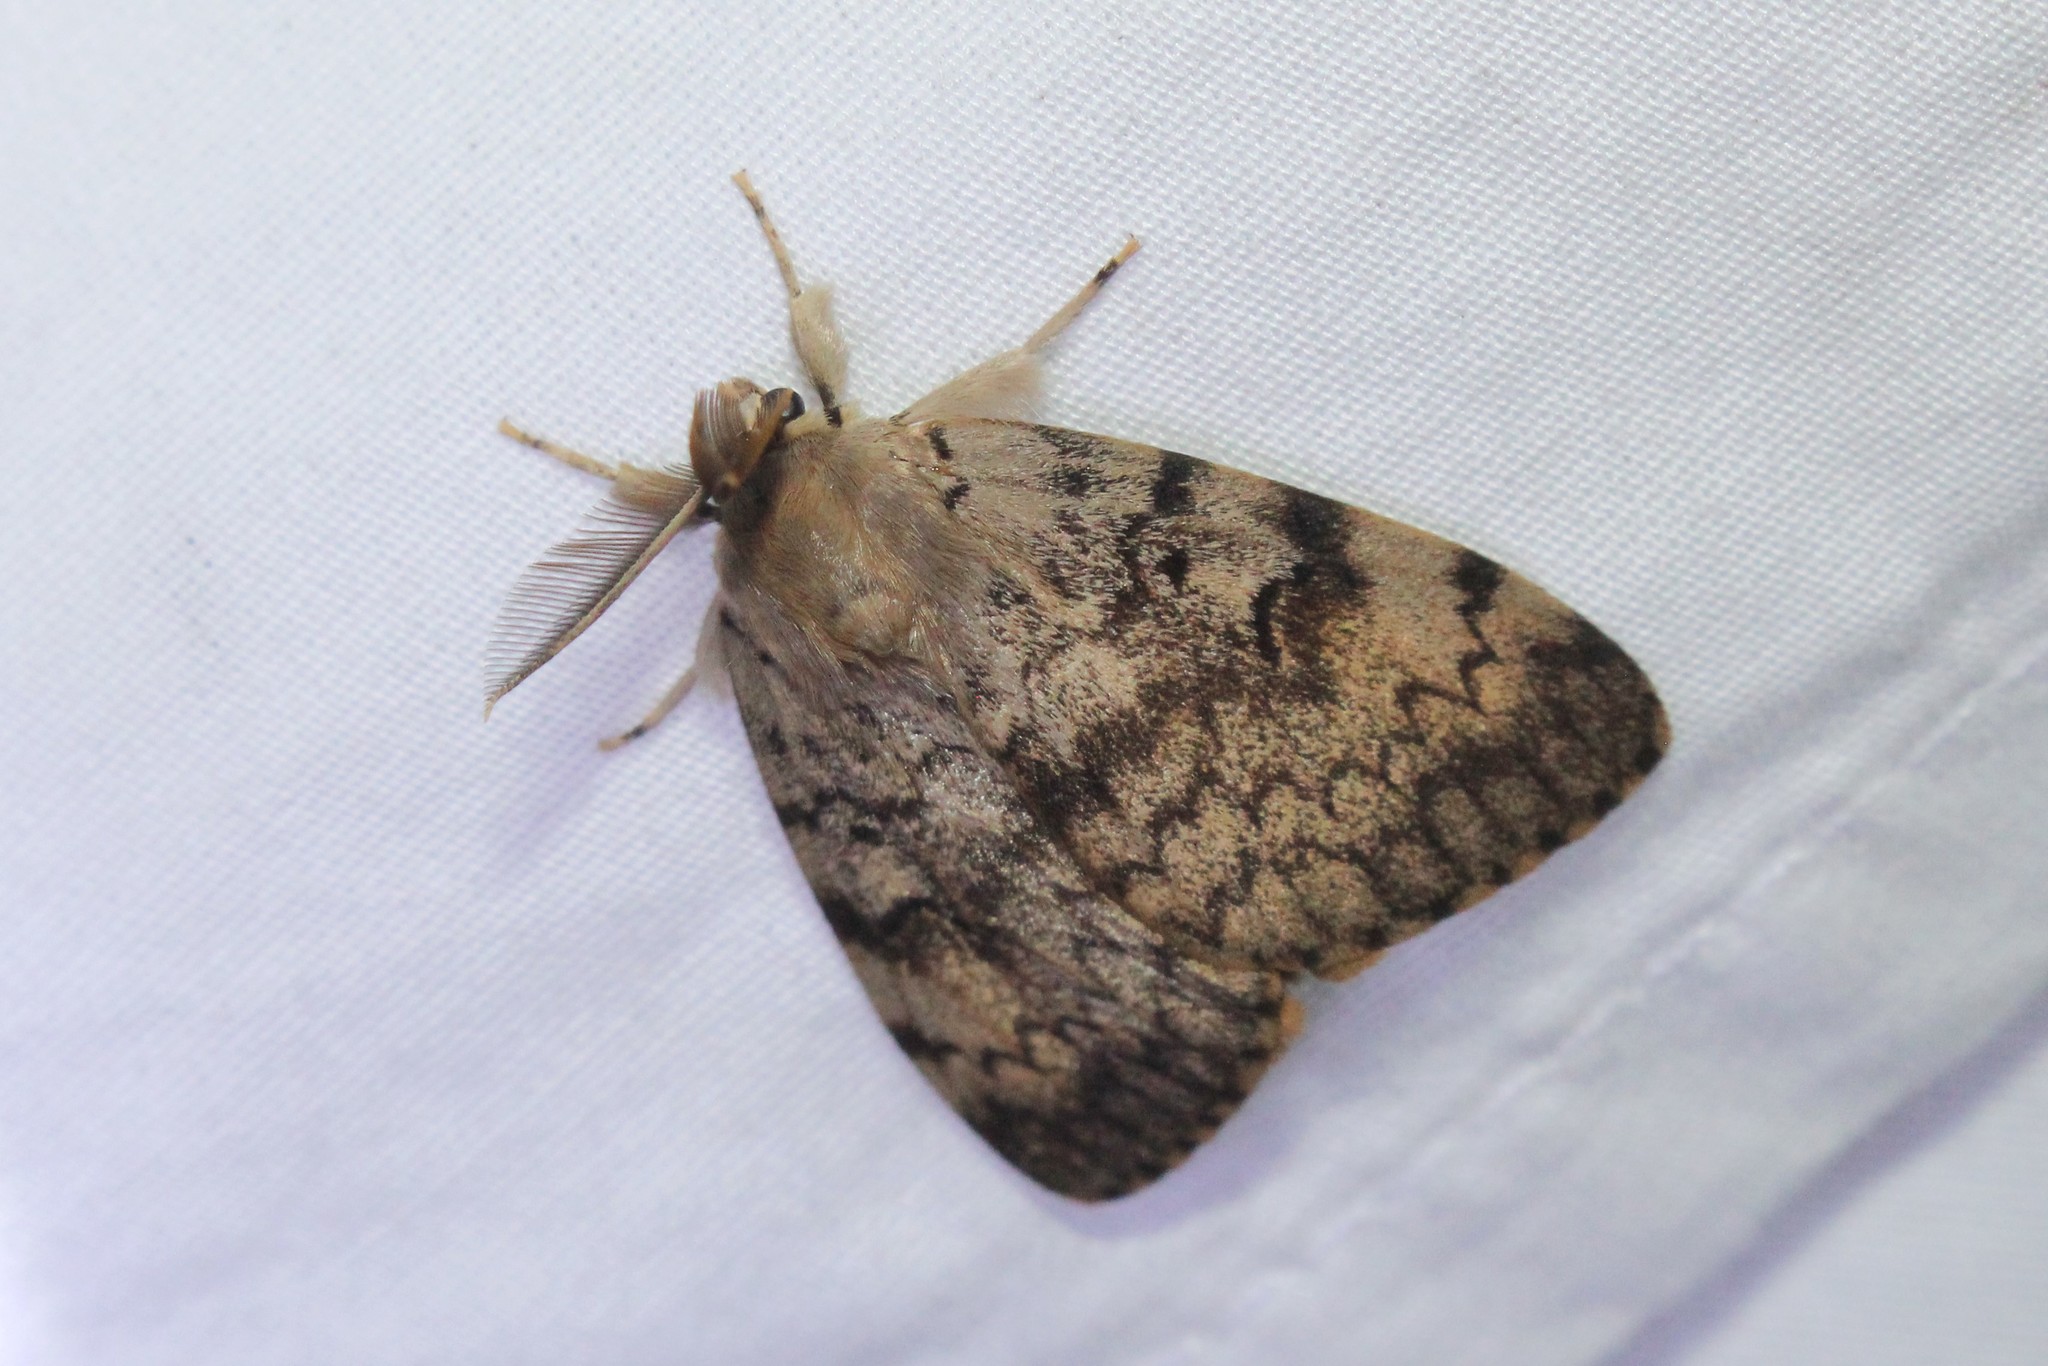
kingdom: Animalia
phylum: Arthropoda
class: Insecta
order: Lepidoptera
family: Erebidae
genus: Lymantria
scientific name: Lymantria dispar
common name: Gypsy moth
